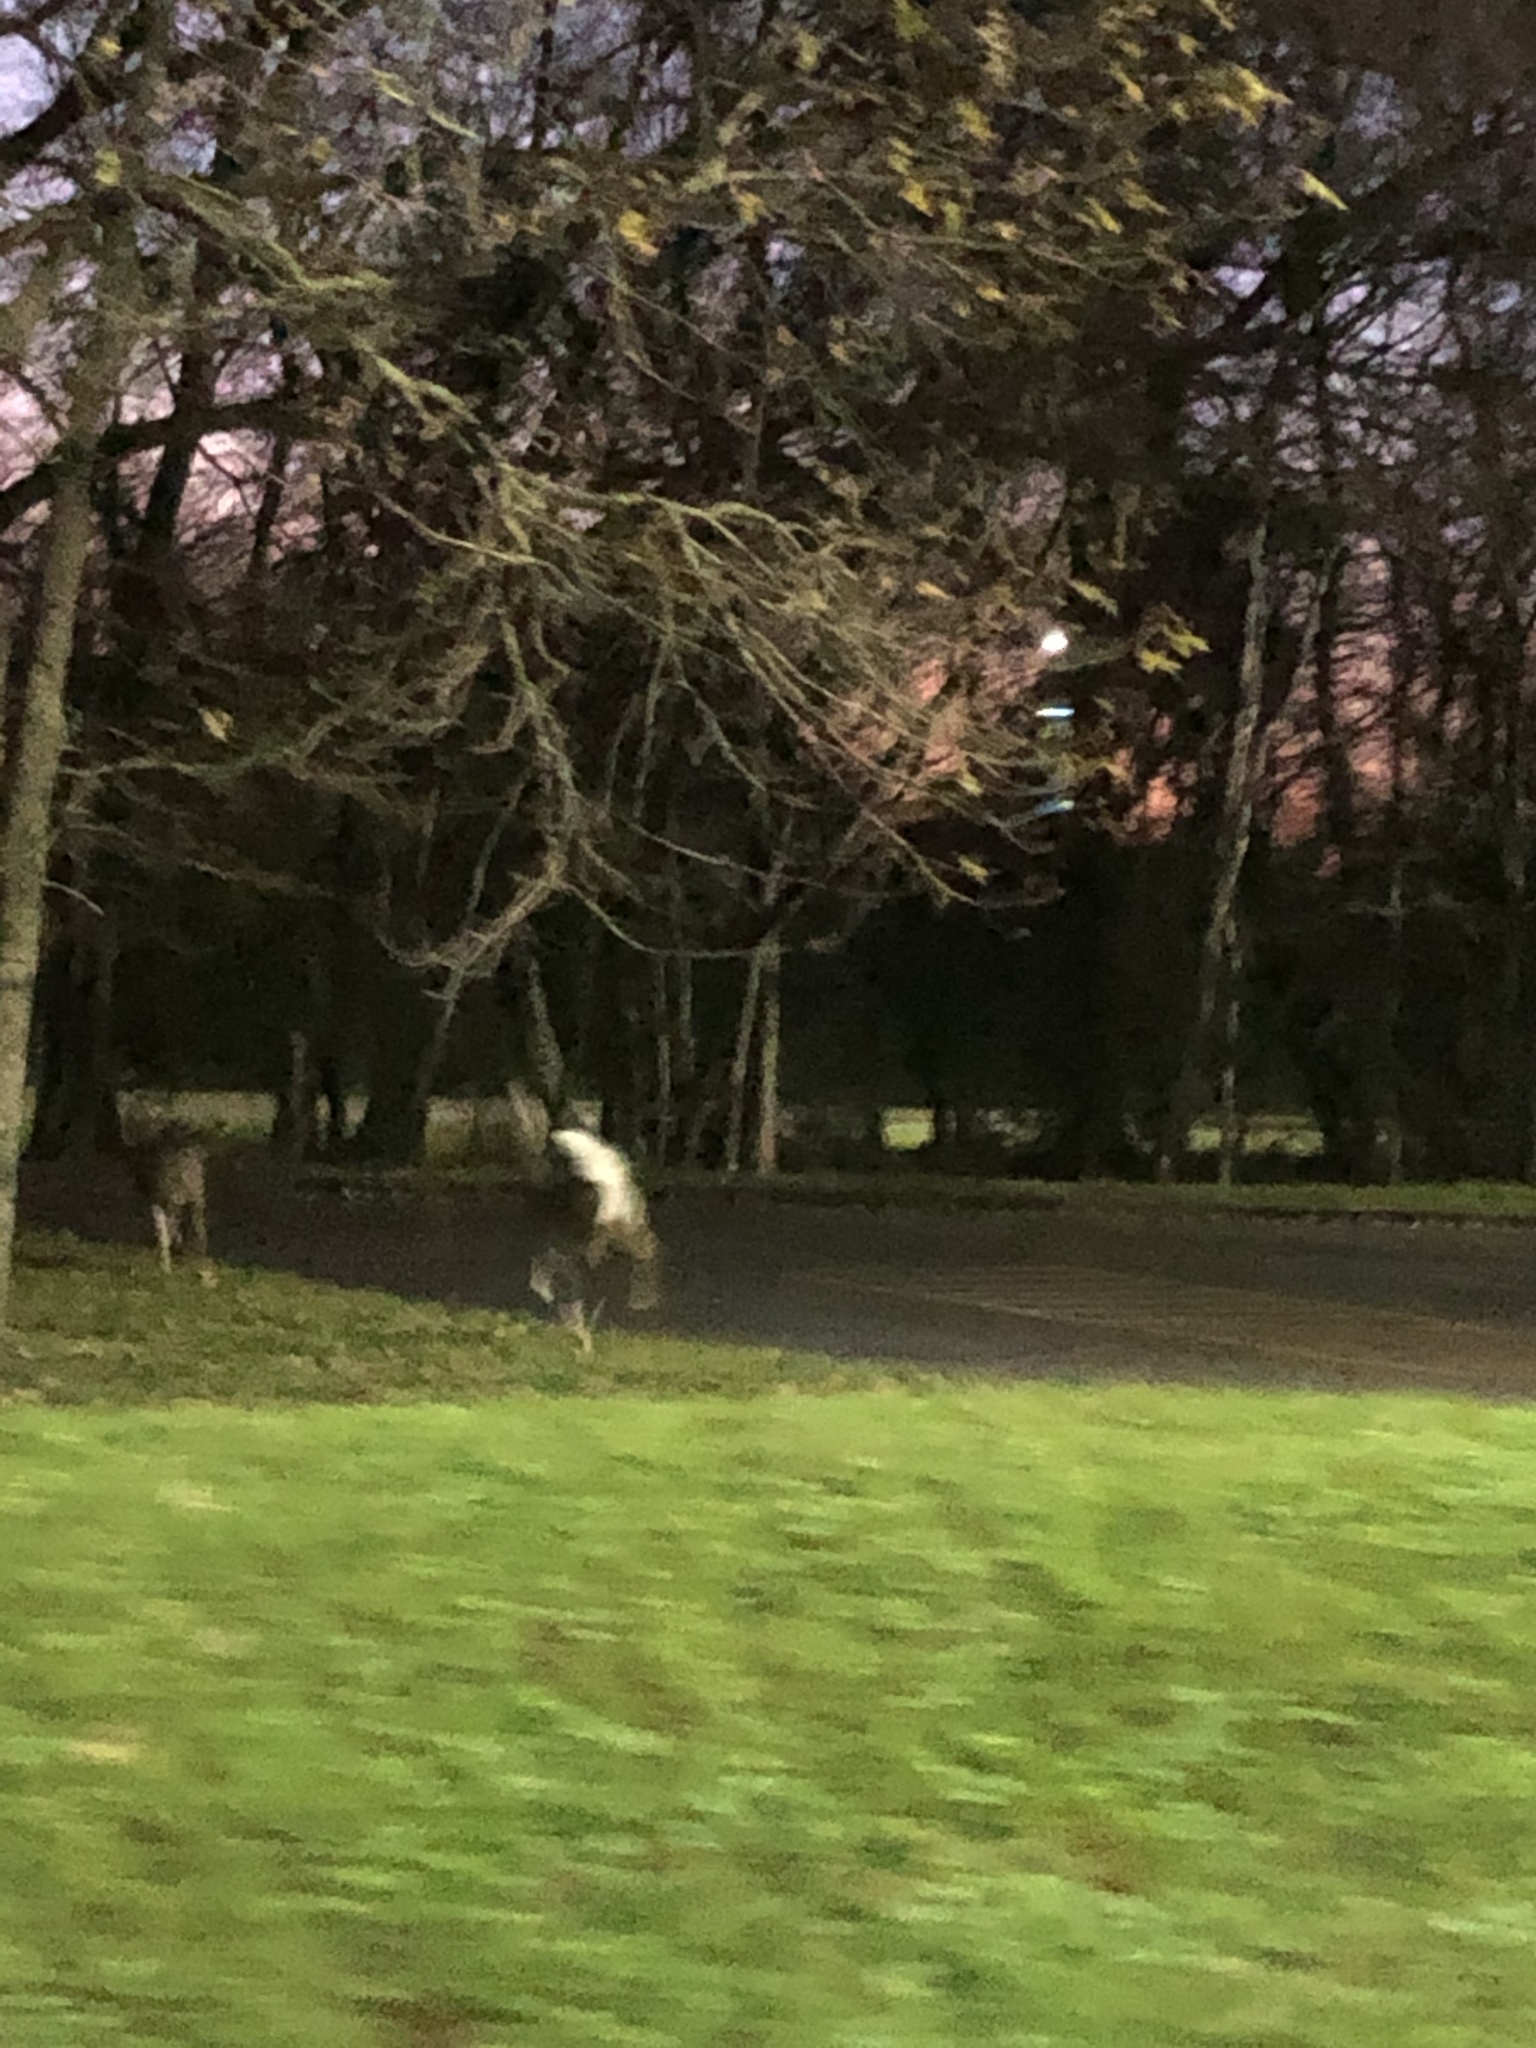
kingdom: Animalia
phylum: Chordata
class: Mammalia
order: Artiodactyla
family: Cervidae
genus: Odocoileus
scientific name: Odocoileus virginianus
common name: White-tailed deer
